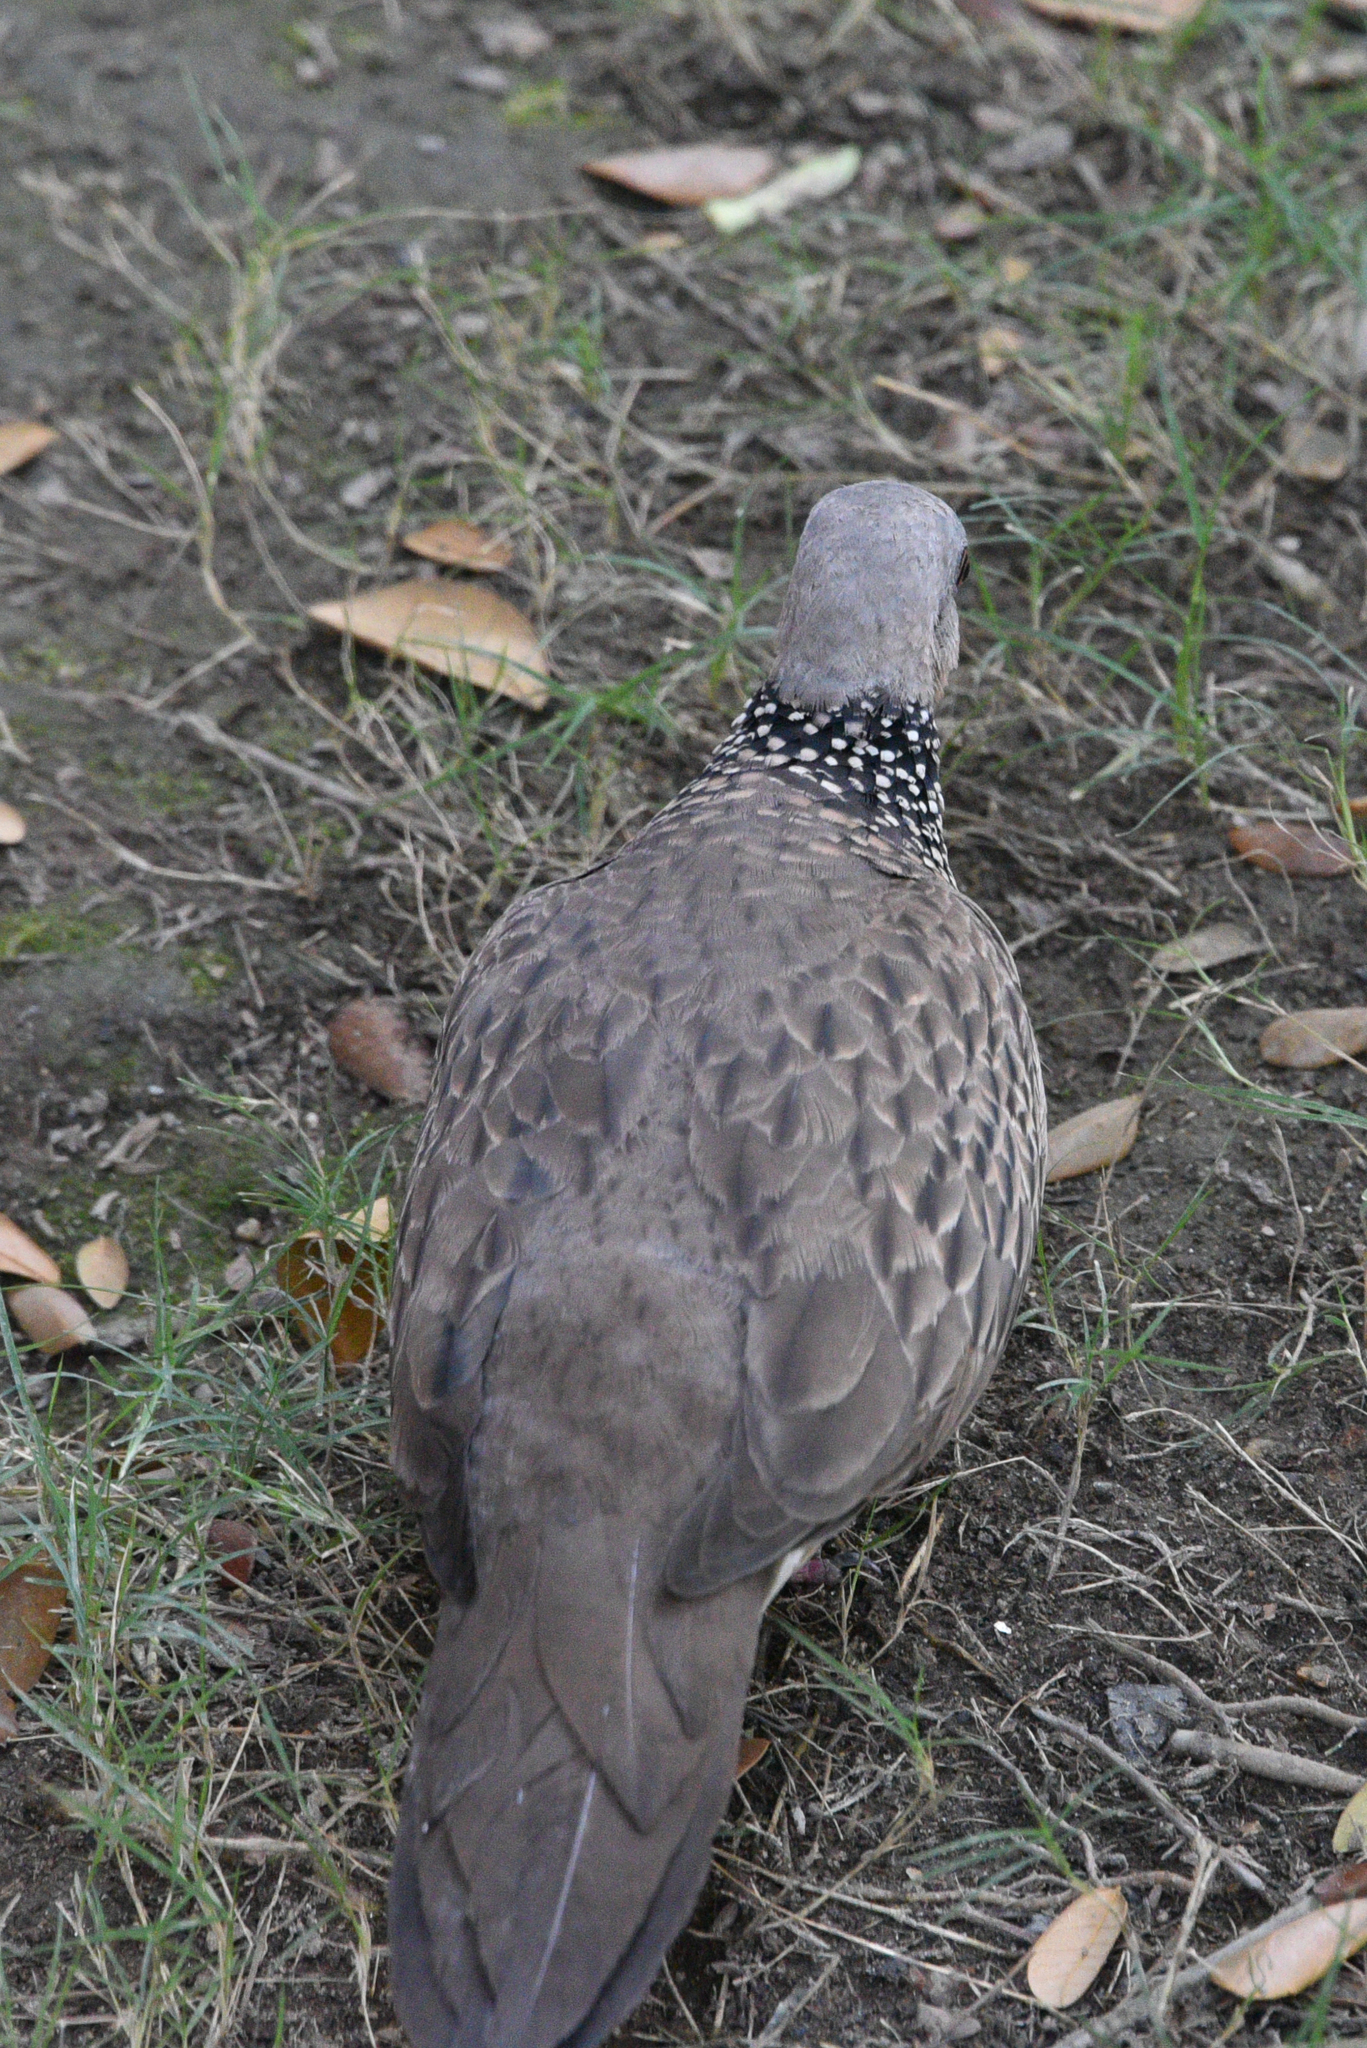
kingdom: Animalia
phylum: Chordata
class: Aves
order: Columbiformes
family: Columbidae
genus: Spilopelia
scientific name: Spilopelia chinensis
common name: Spotted dove
